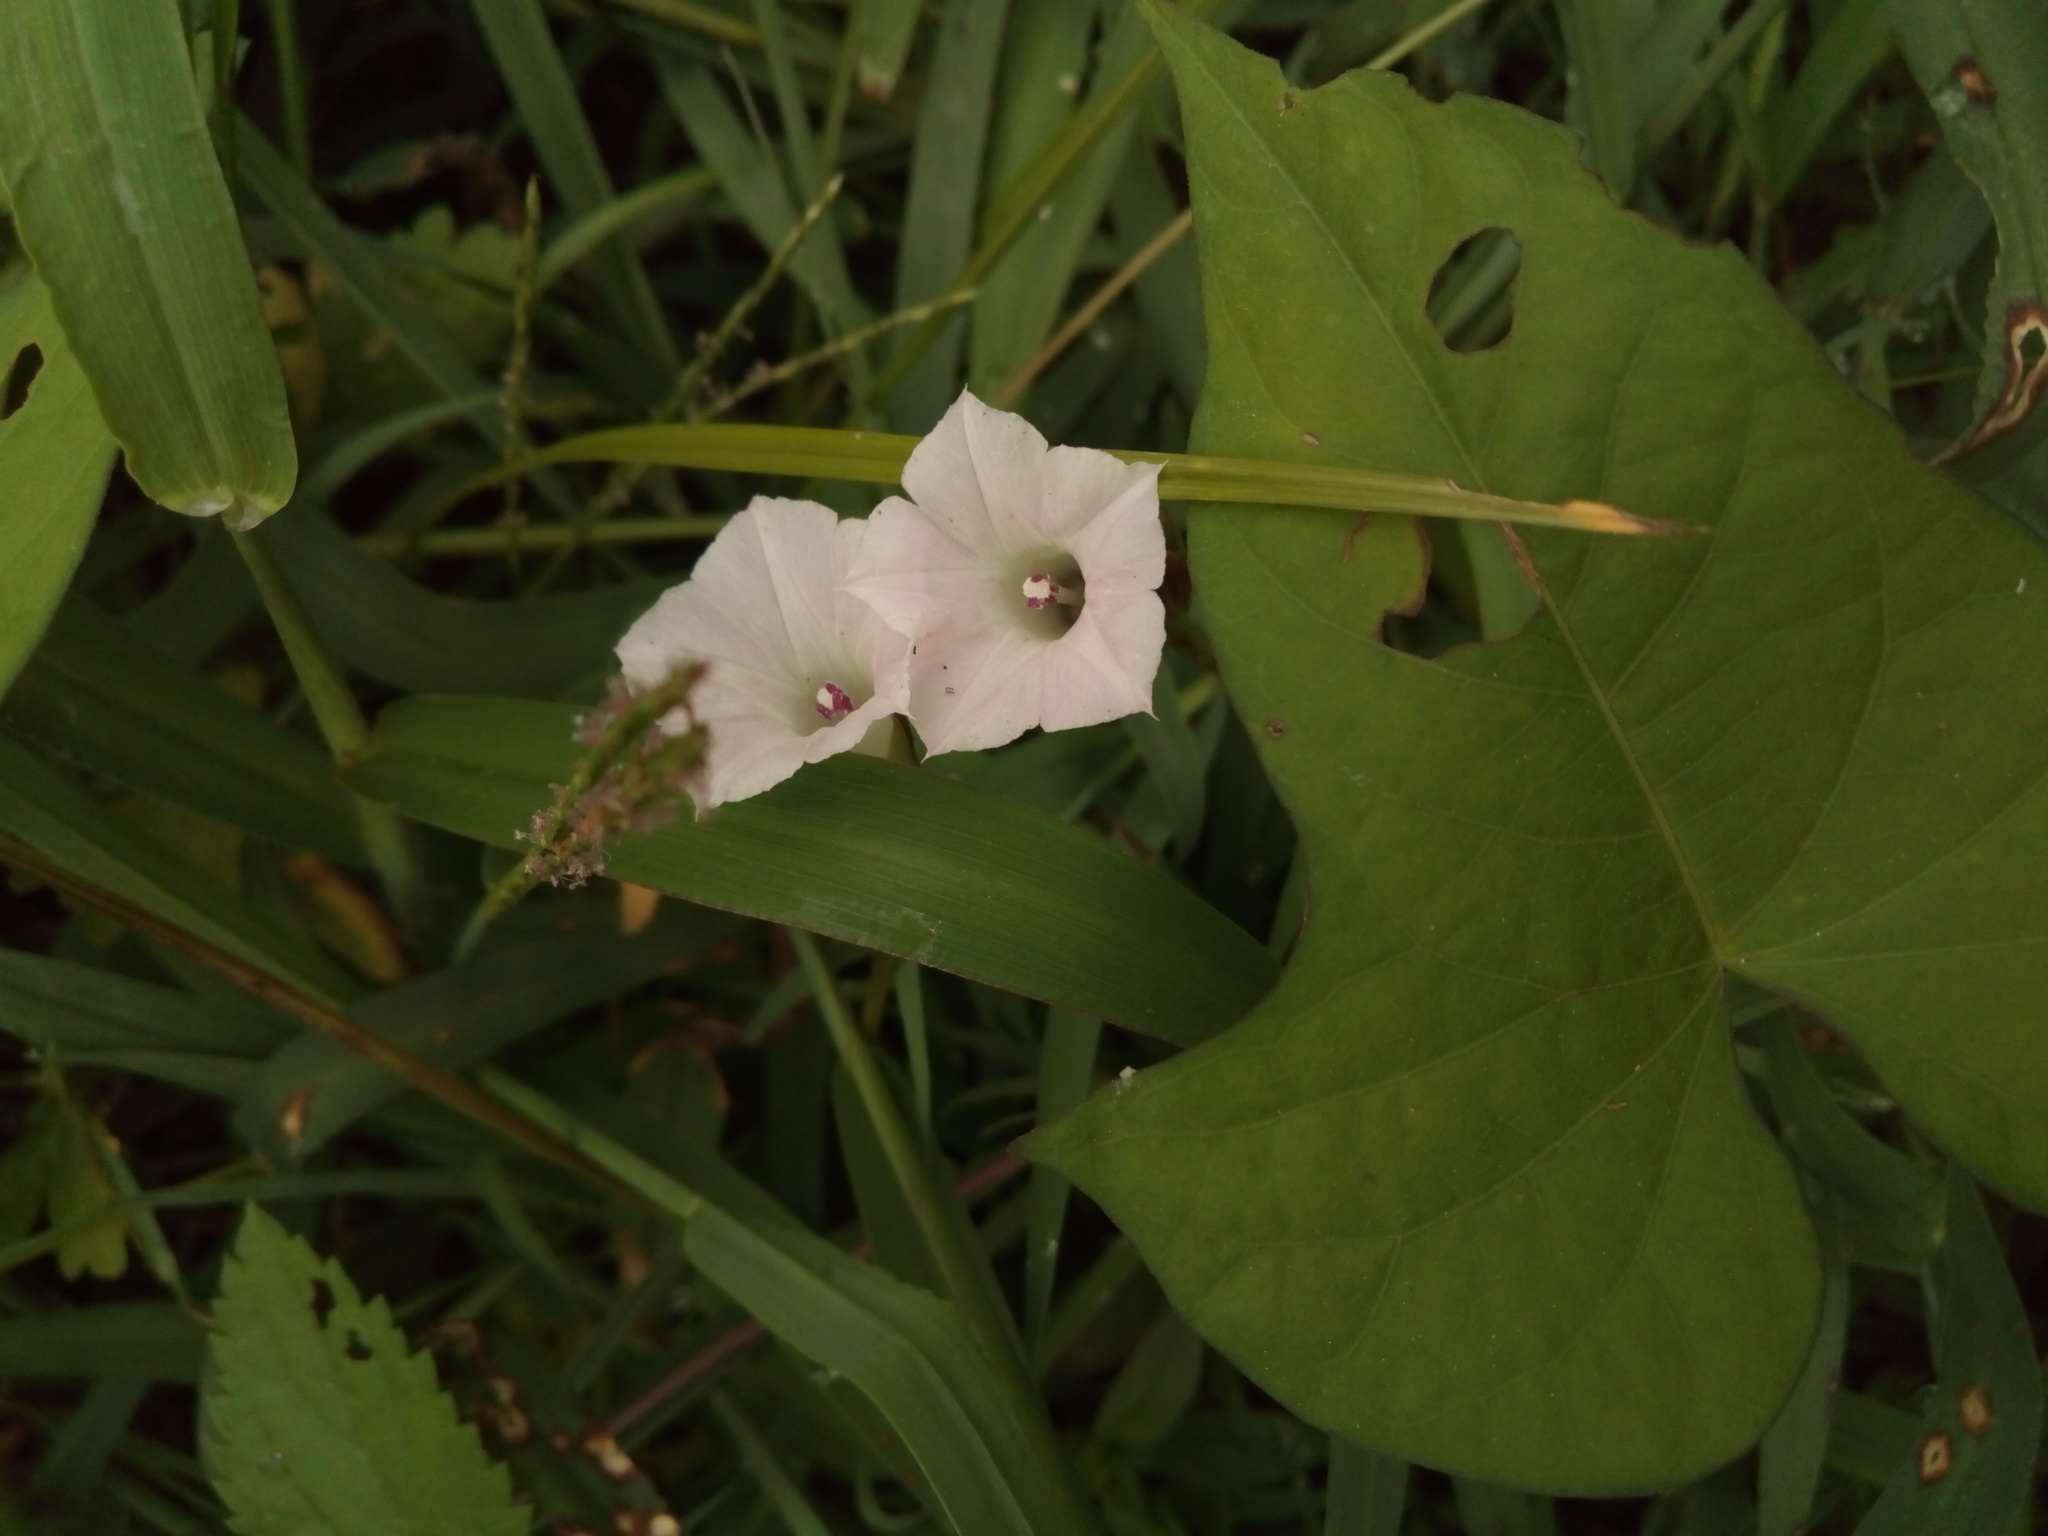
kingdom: Plantae
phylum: Tracheophyta
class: Magnoliopsida
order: Solanales
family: Convolvulaceae
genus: Ipomoea
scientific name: Ipomoea lacunosa
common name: White morning-glory
